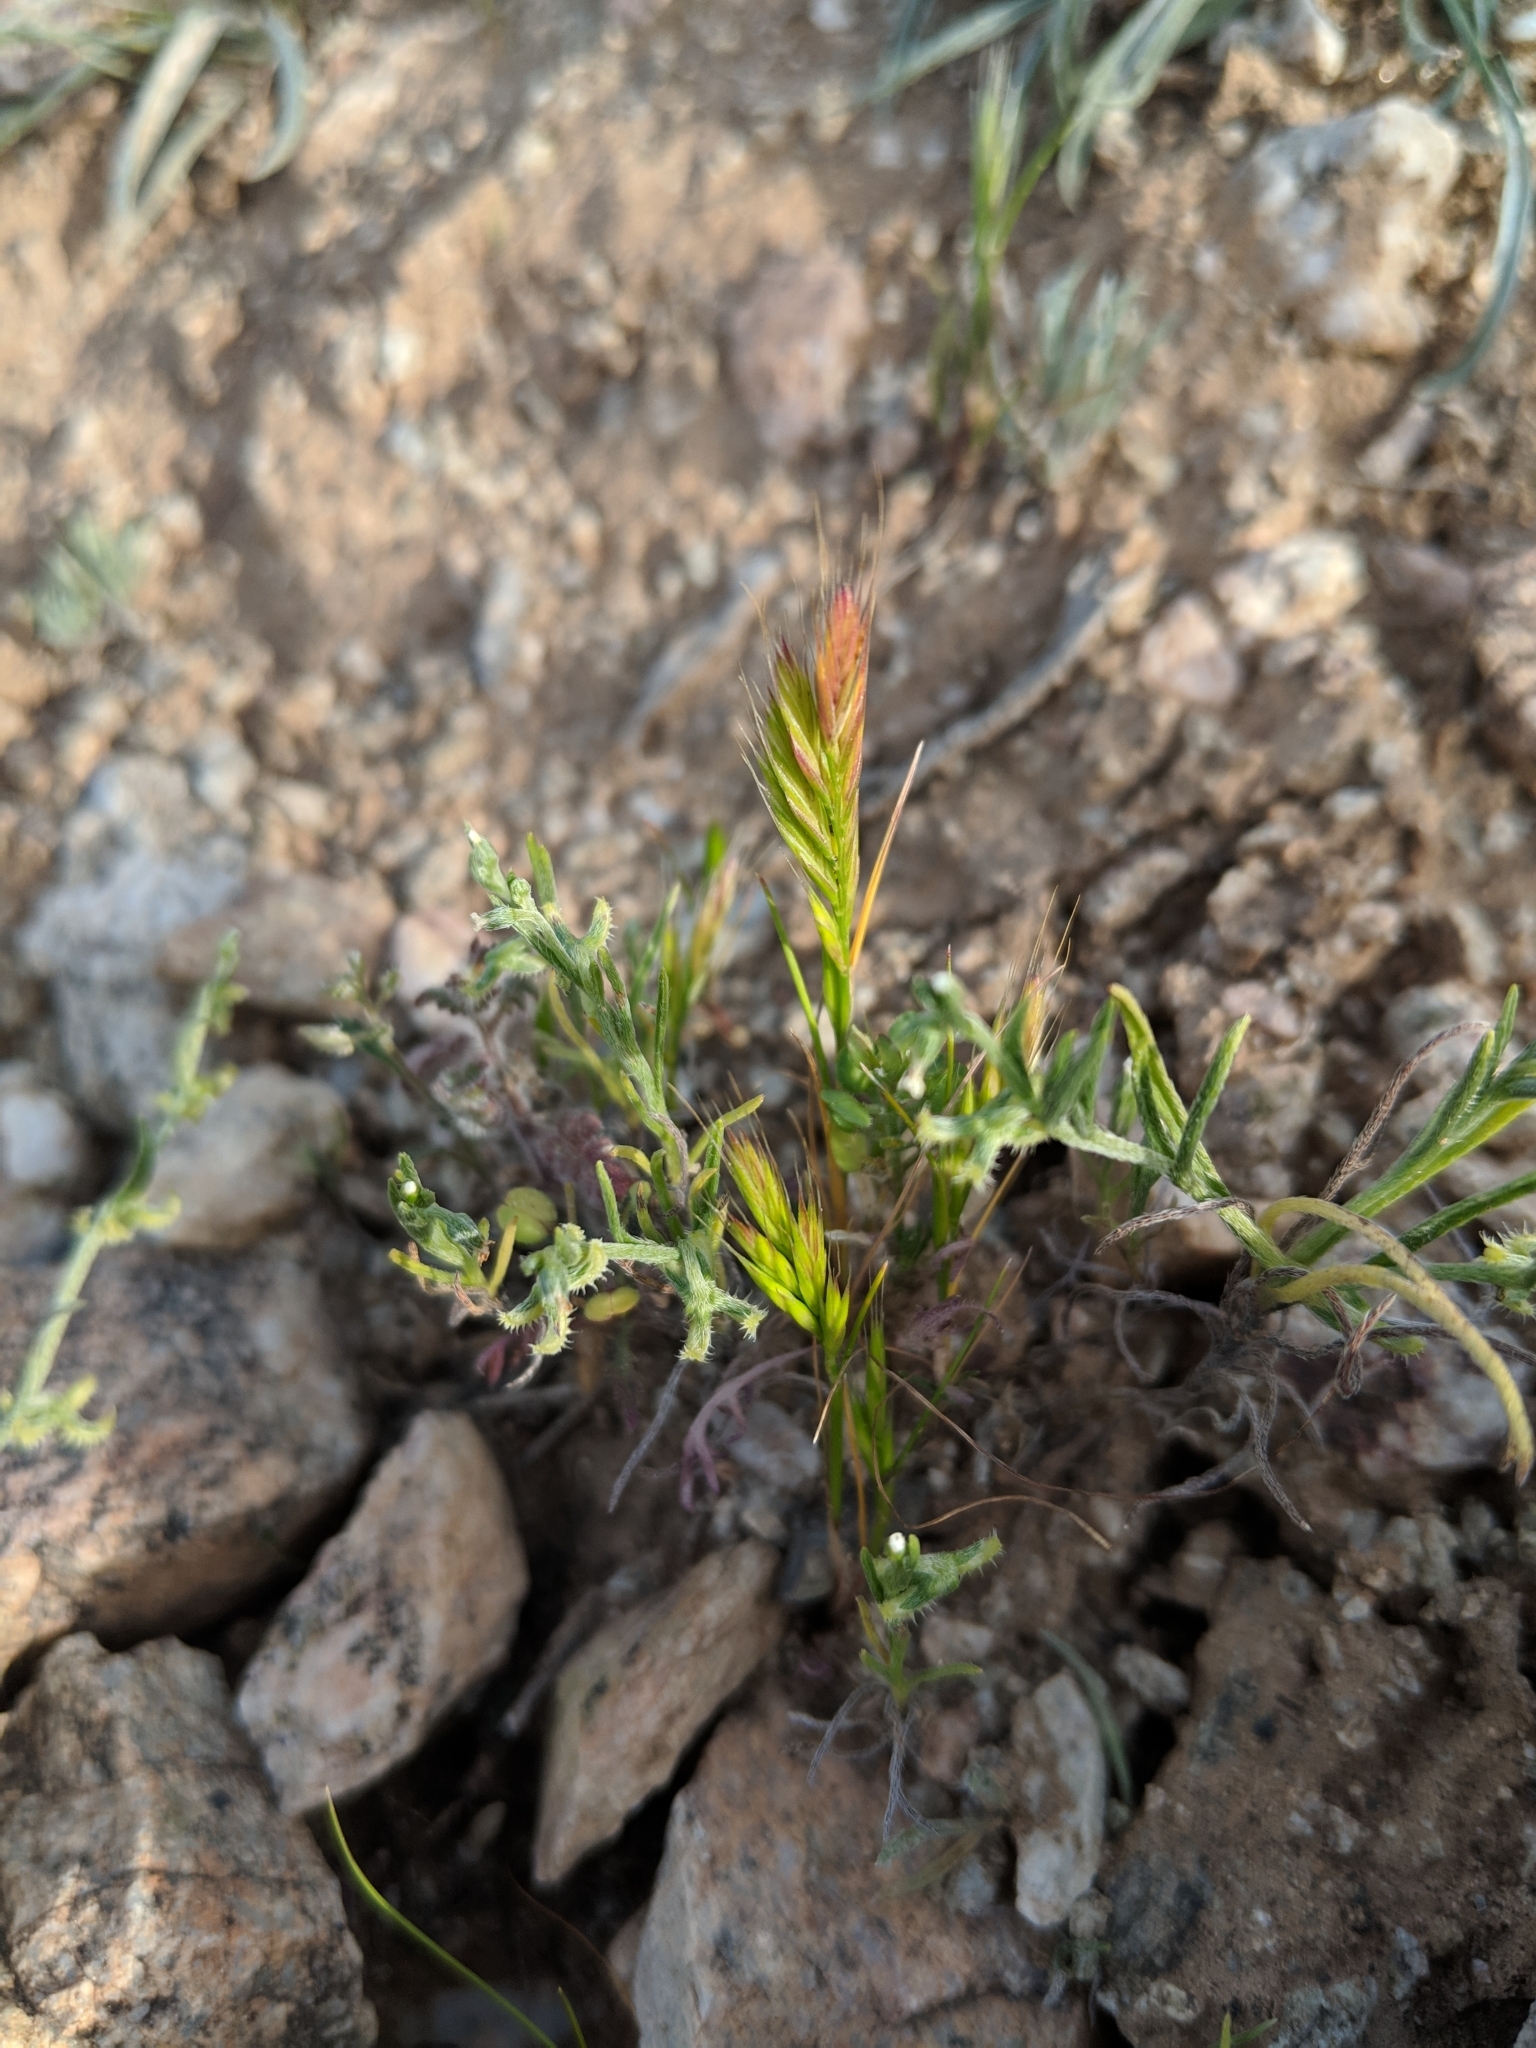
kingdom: Plantae
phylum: Tracheophyta
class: Liliopsida
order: Poales
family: Poaceae
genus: Festuca
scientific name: Festuca octoflora
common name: Sixweeks grass
